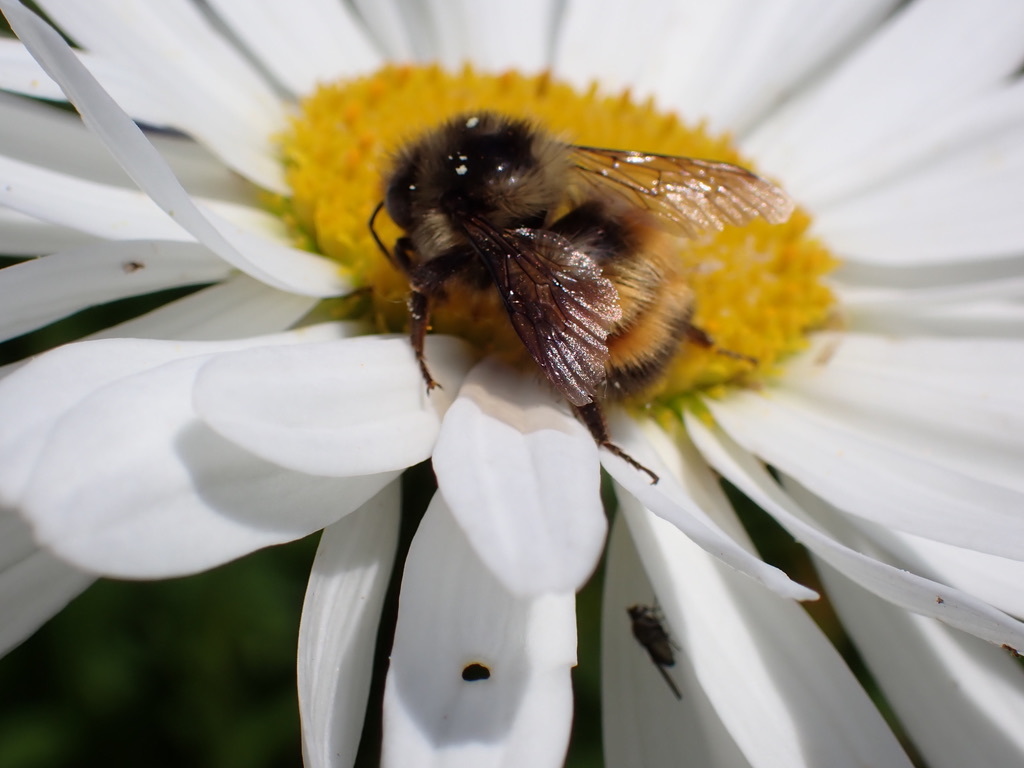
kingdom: Animalia
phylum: Arthropoda
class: Insecta
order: Hymenoptera
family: Apidae
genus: Bombus
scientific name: Bombus melanopygus
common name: Black tail bumble bee
